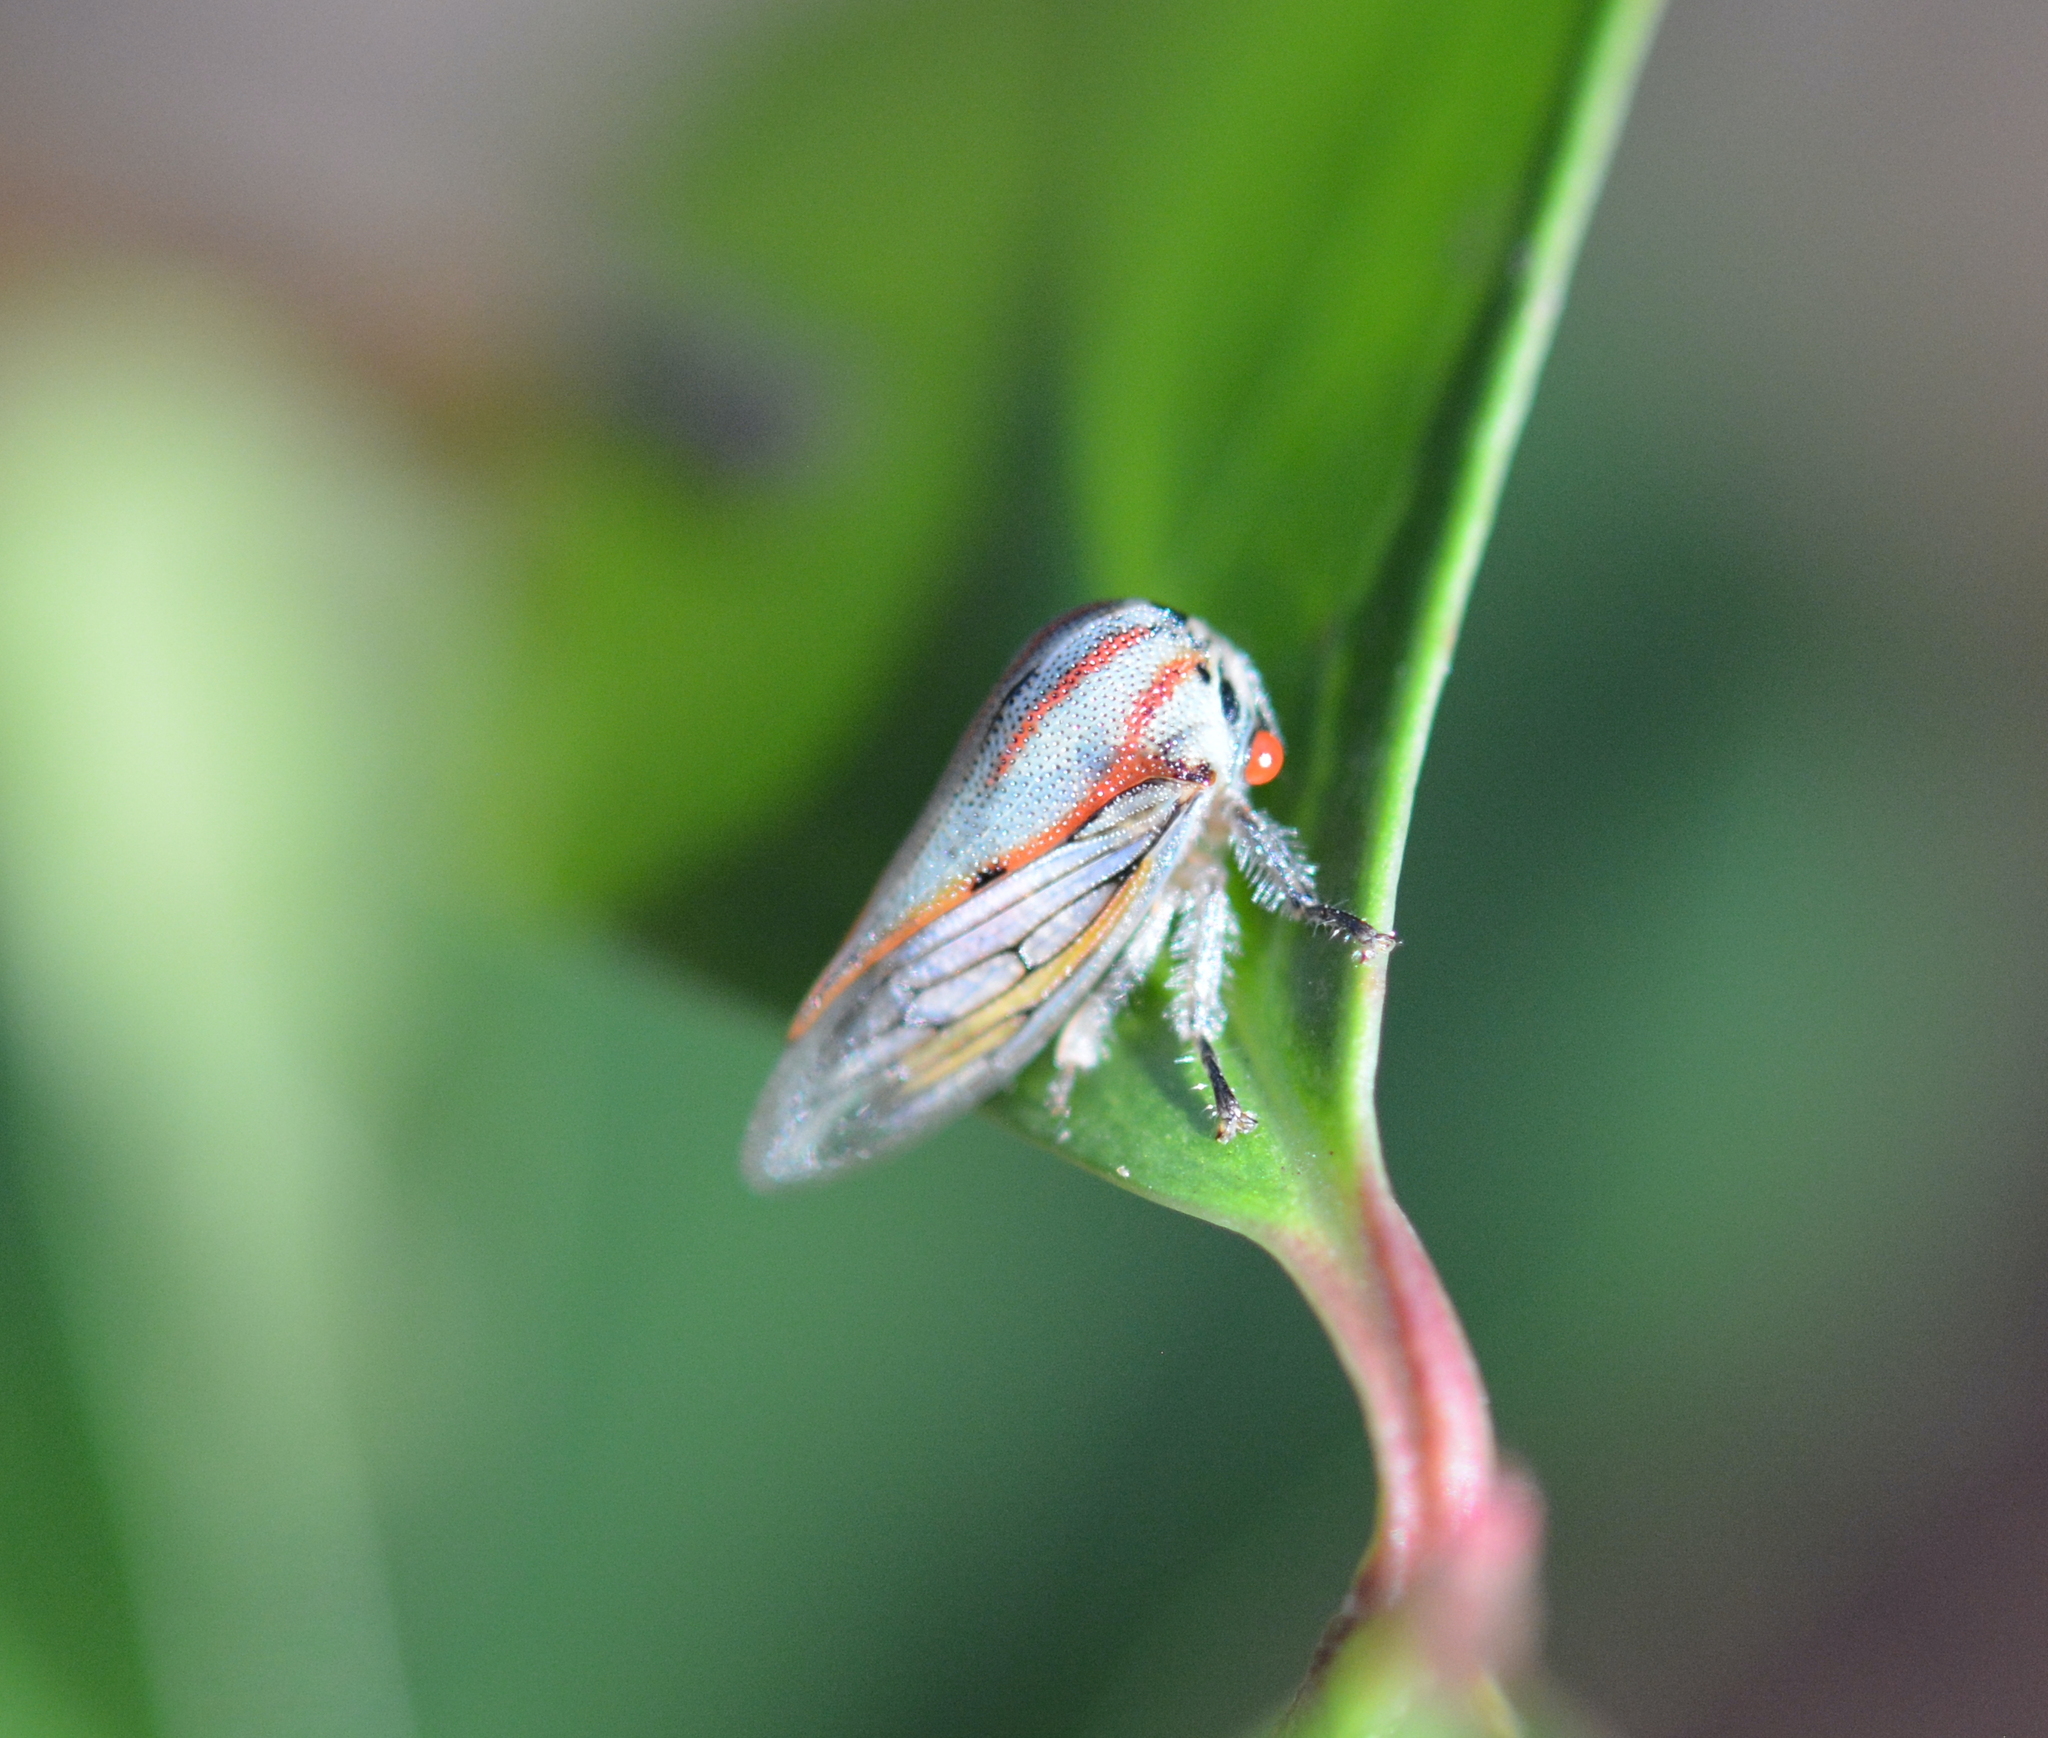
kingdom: Animalia
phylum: Arthropoda
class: Insecta
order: Hemiptera
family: Membracidae
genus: Platycotis
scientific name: Platycotis vittatus
